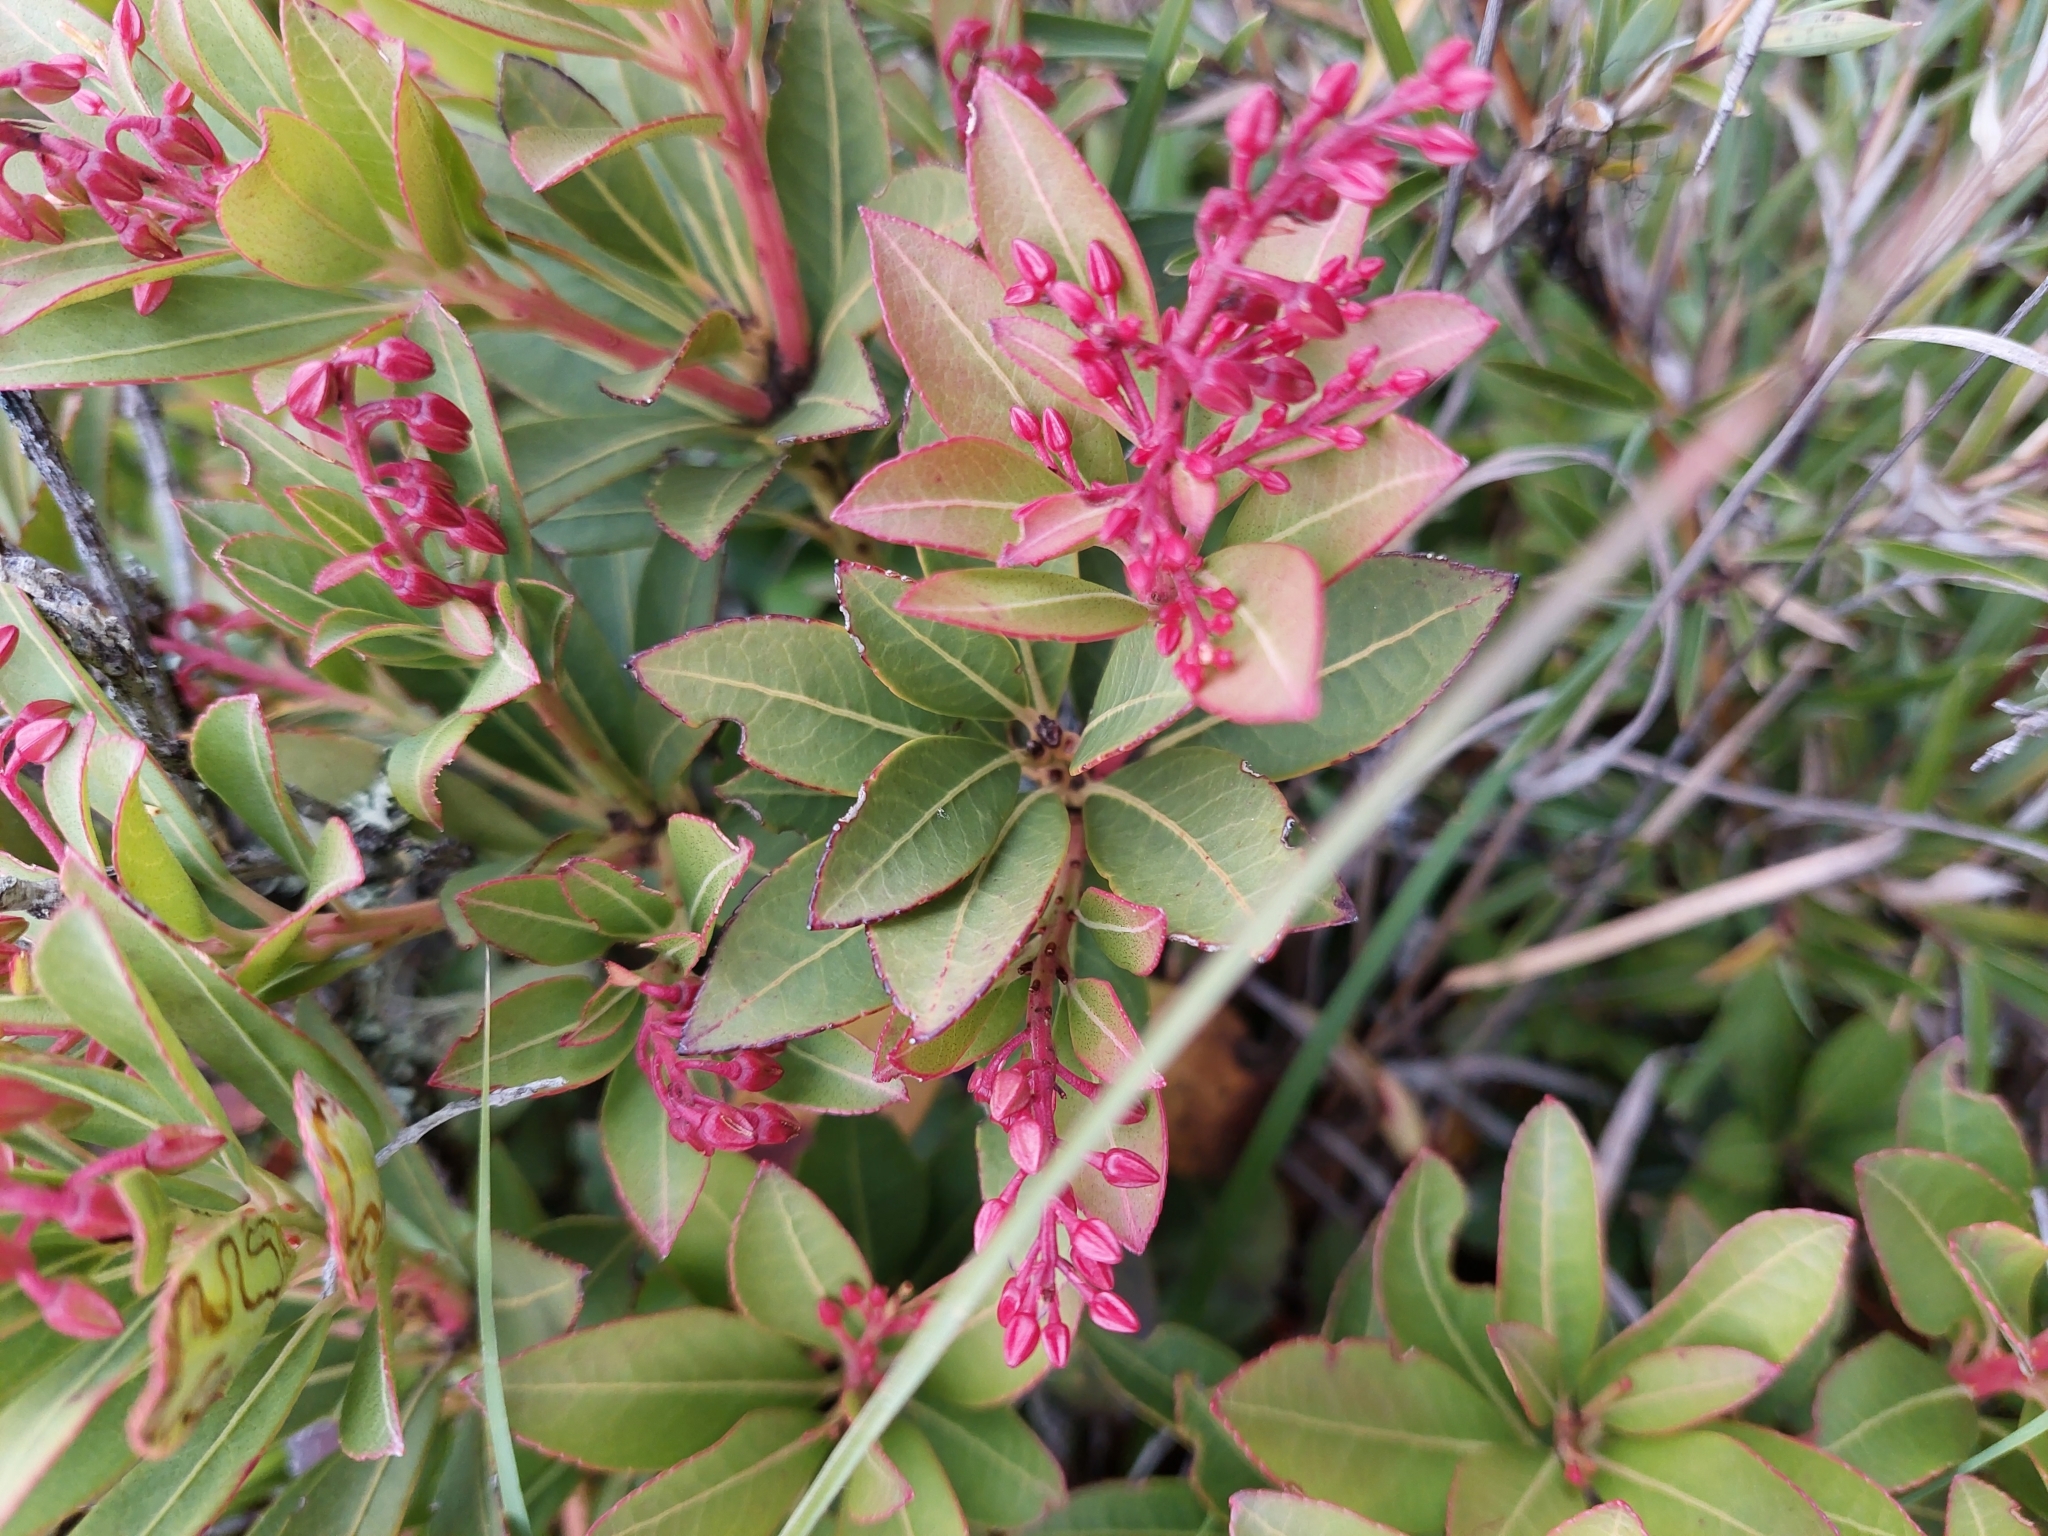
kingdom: Plantae
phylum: Tracheophyta
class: Magnoliopsida
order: Ericales
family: Ericaceae
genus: Pieris
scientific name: Pieris japonica
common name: Japanese pieris
